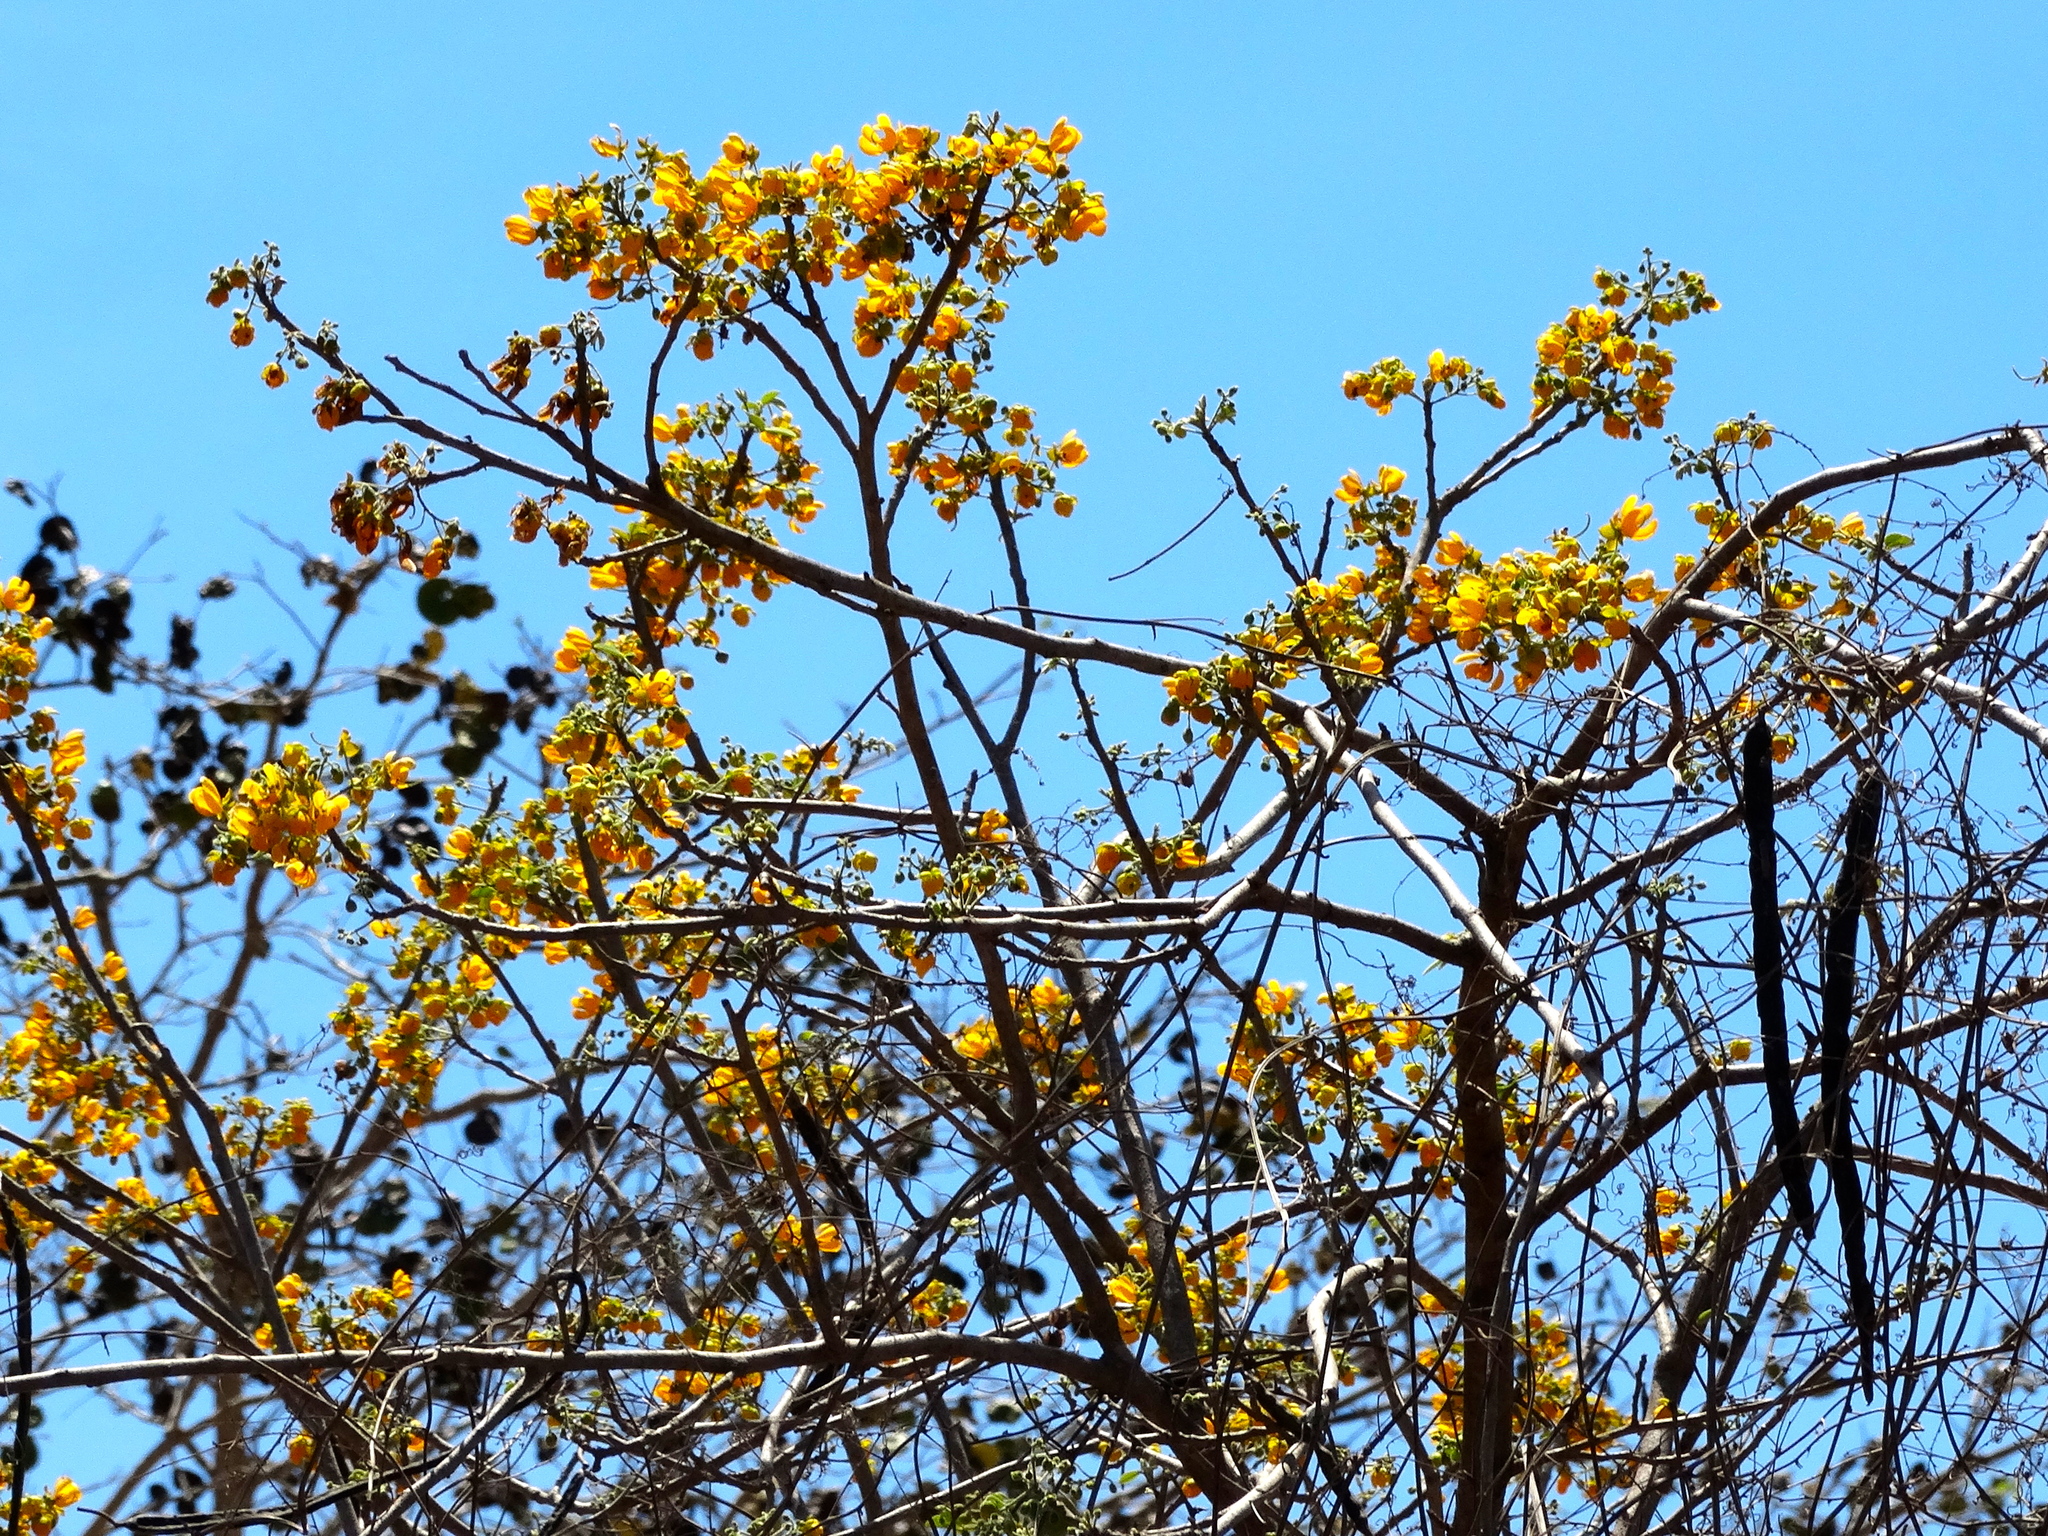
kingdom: Plantae
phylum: Tracheophyta
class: Magnoliopsida
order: Fabales
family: Fabaceae
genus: Senna
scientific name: Senna atomaria
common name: Flor de san jose
